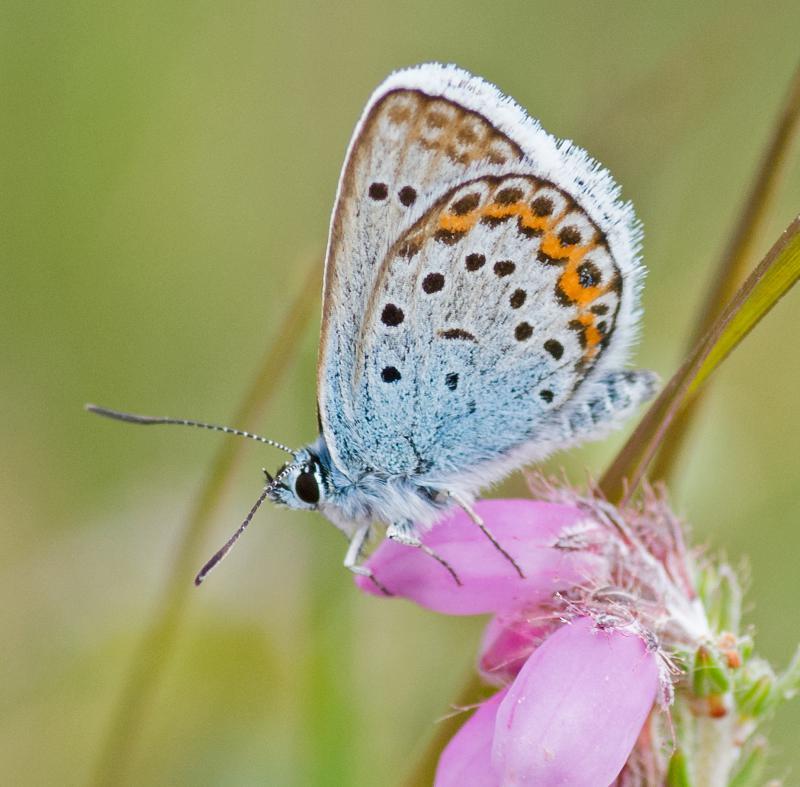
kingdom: Animalia
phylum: Arthropoda
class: Insecta
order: Lepidoptera
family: Lycaenidae
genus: Plebejus
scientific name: Plebejus argus
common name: Silver-studded blue
